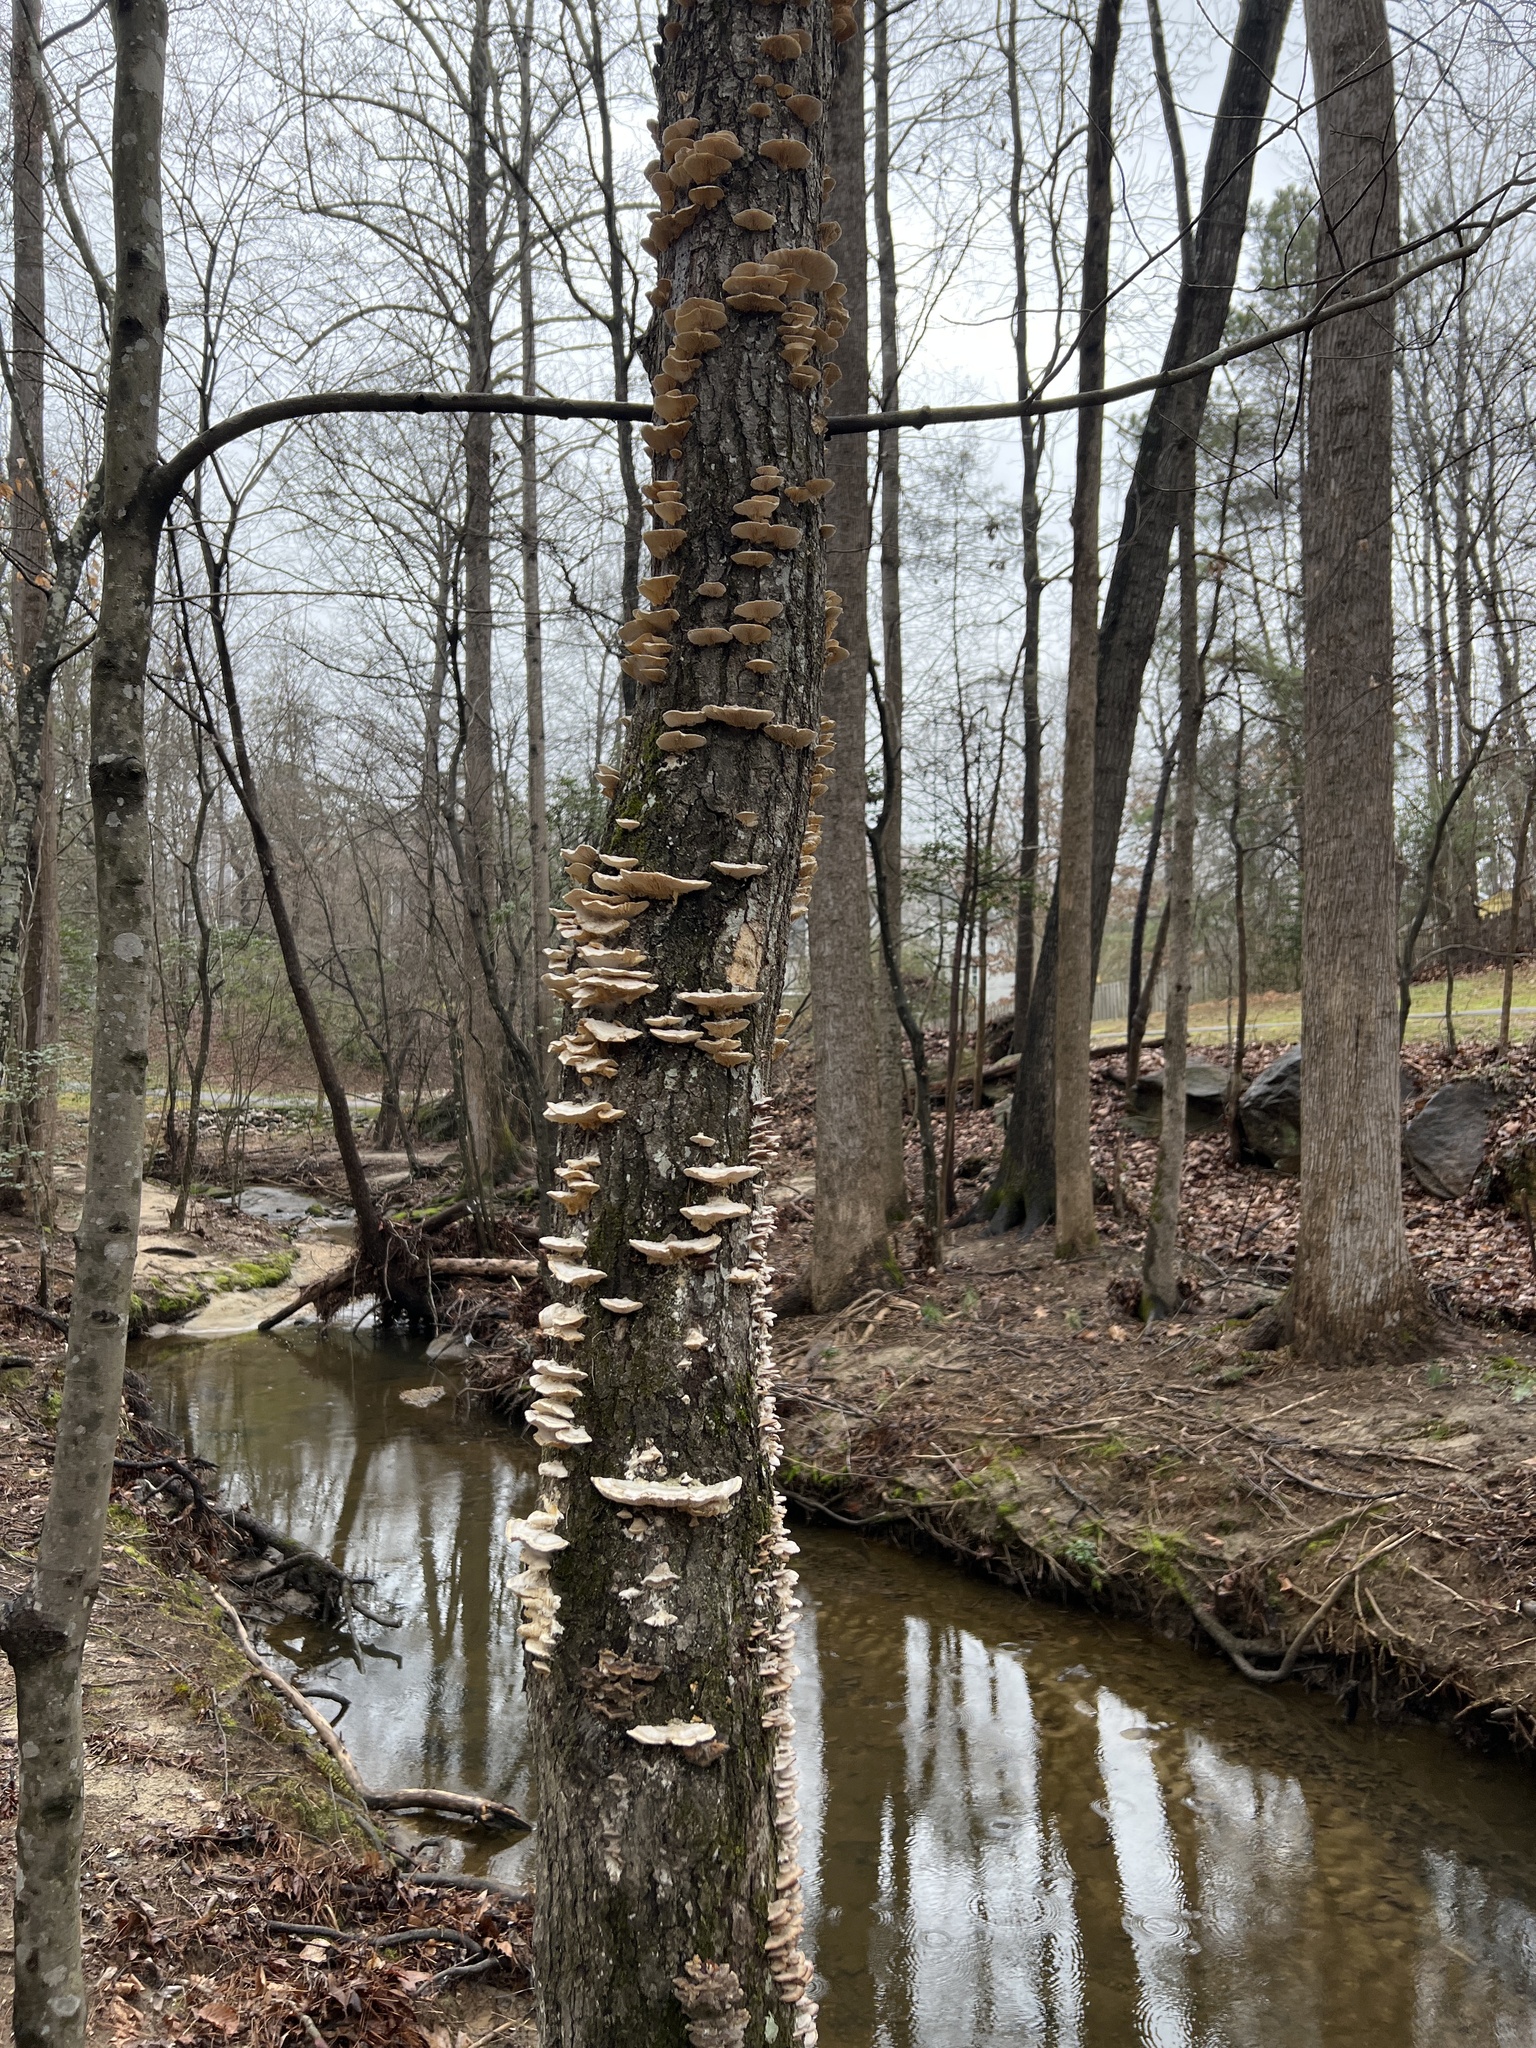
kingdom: Fungi
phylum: Basidiomycota
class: Agaricomycetes
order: Polyporales
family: Polyporaceae
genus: Lenzites
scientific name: Lenzites betulinus
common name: Birch mazegill
